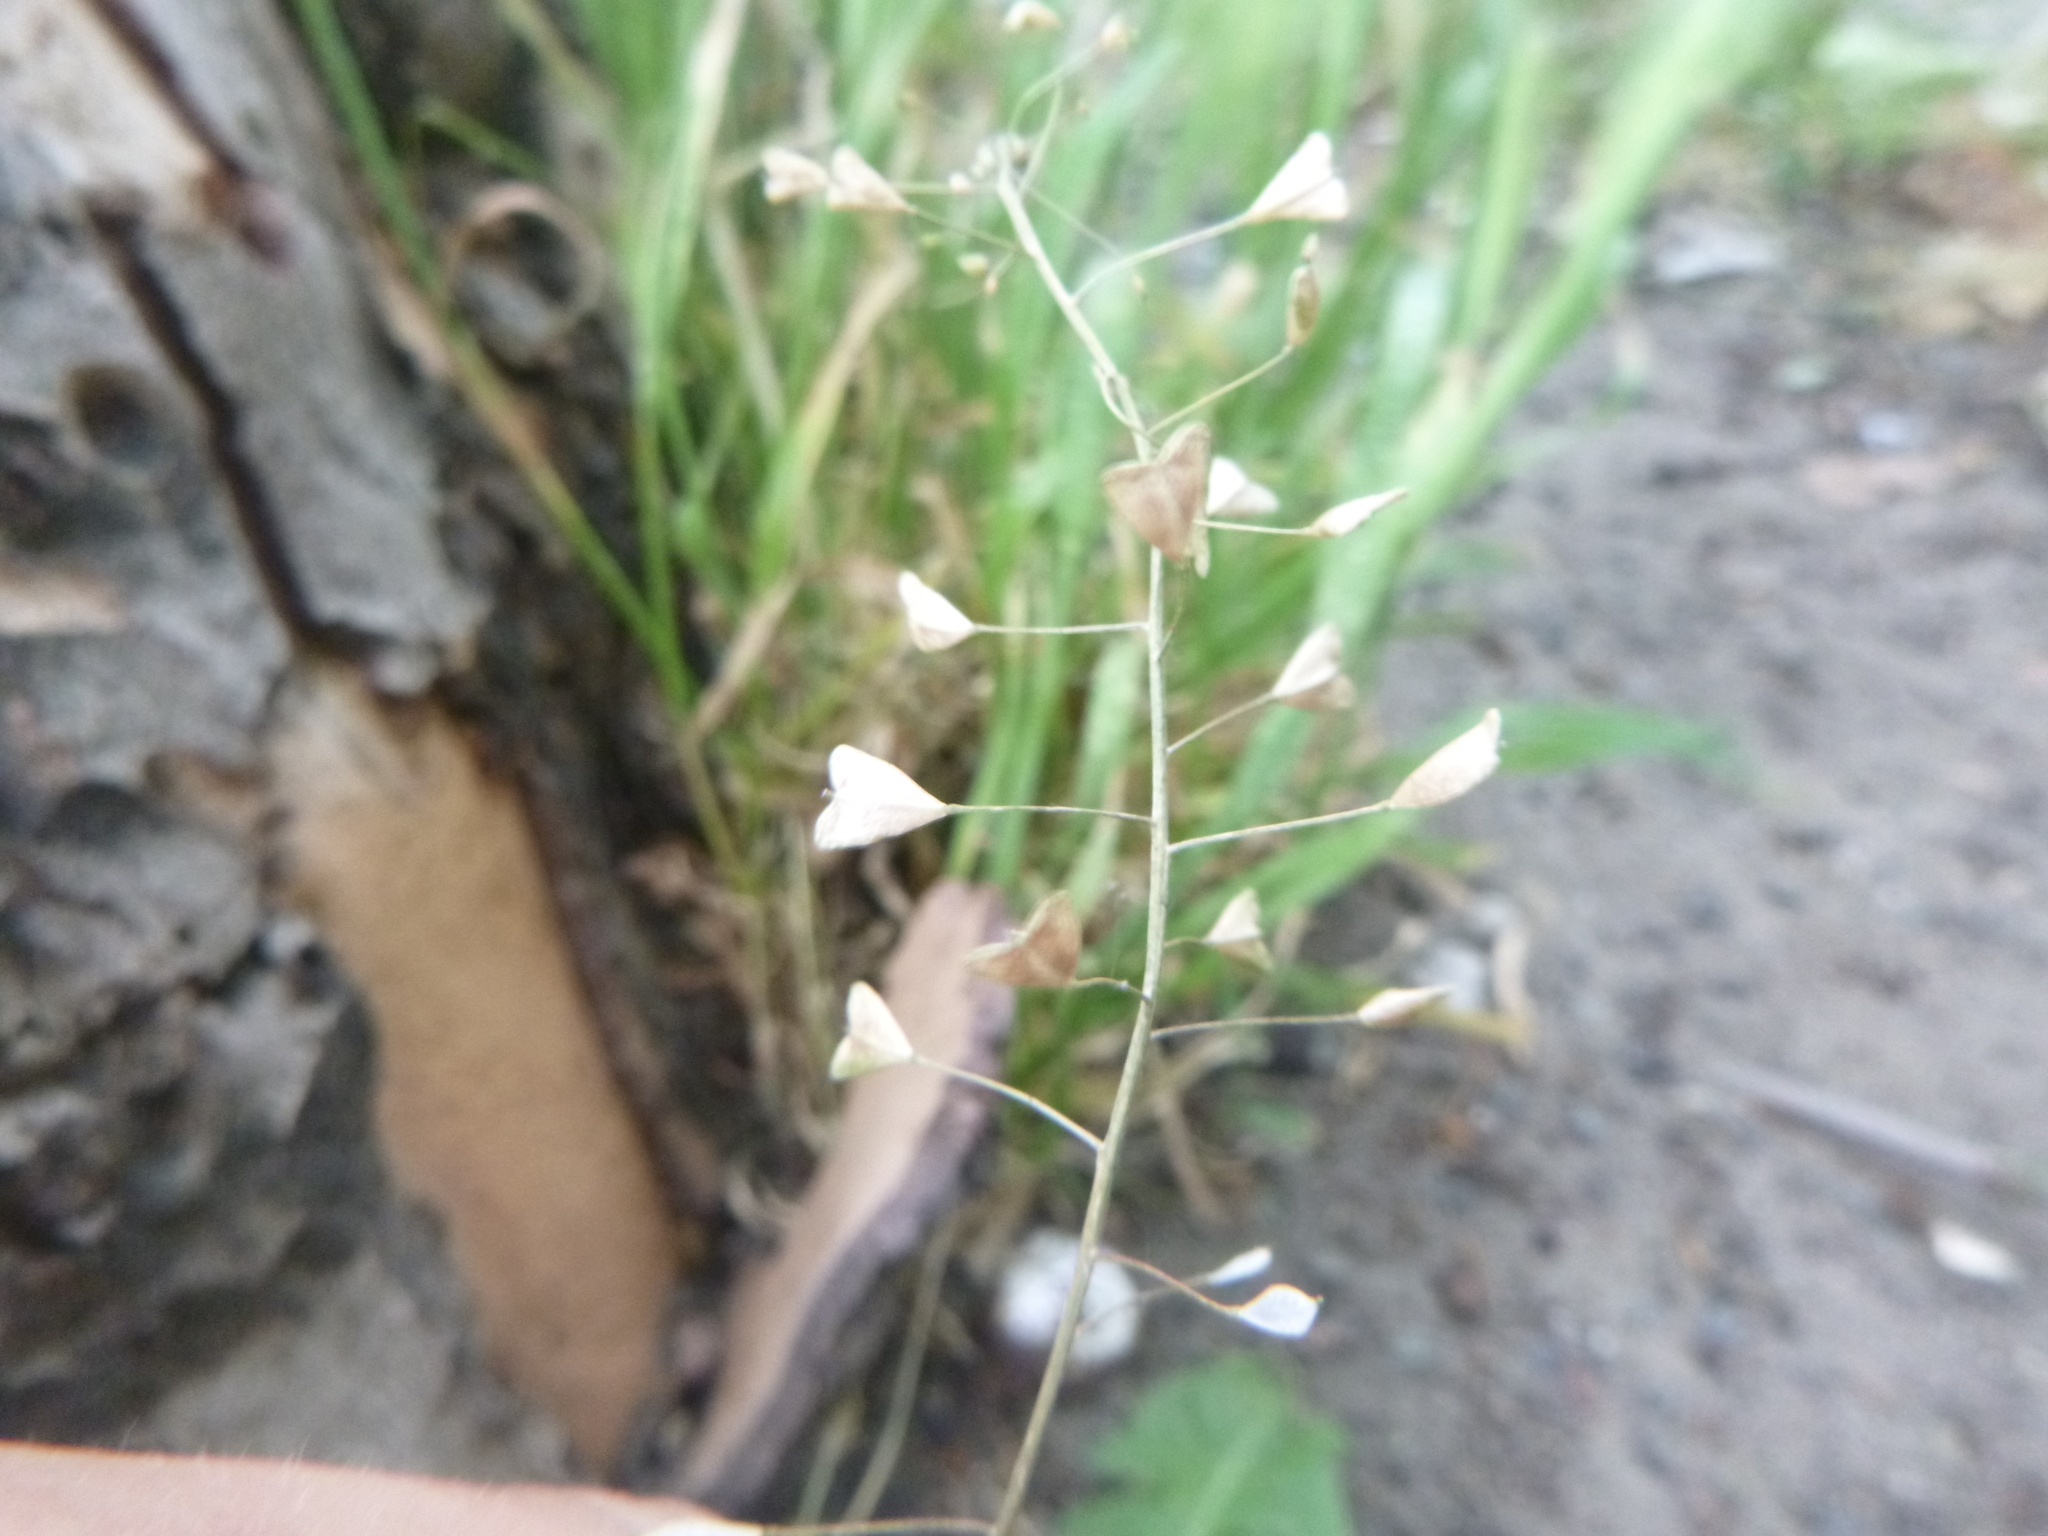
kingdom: Plantae
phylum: Tracheophyta
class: Magnoliopsida
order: Brassicales
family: Brassicaceae
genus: Capsella
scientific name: Capsella bursa-pastoris
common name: Shepherd's purse
